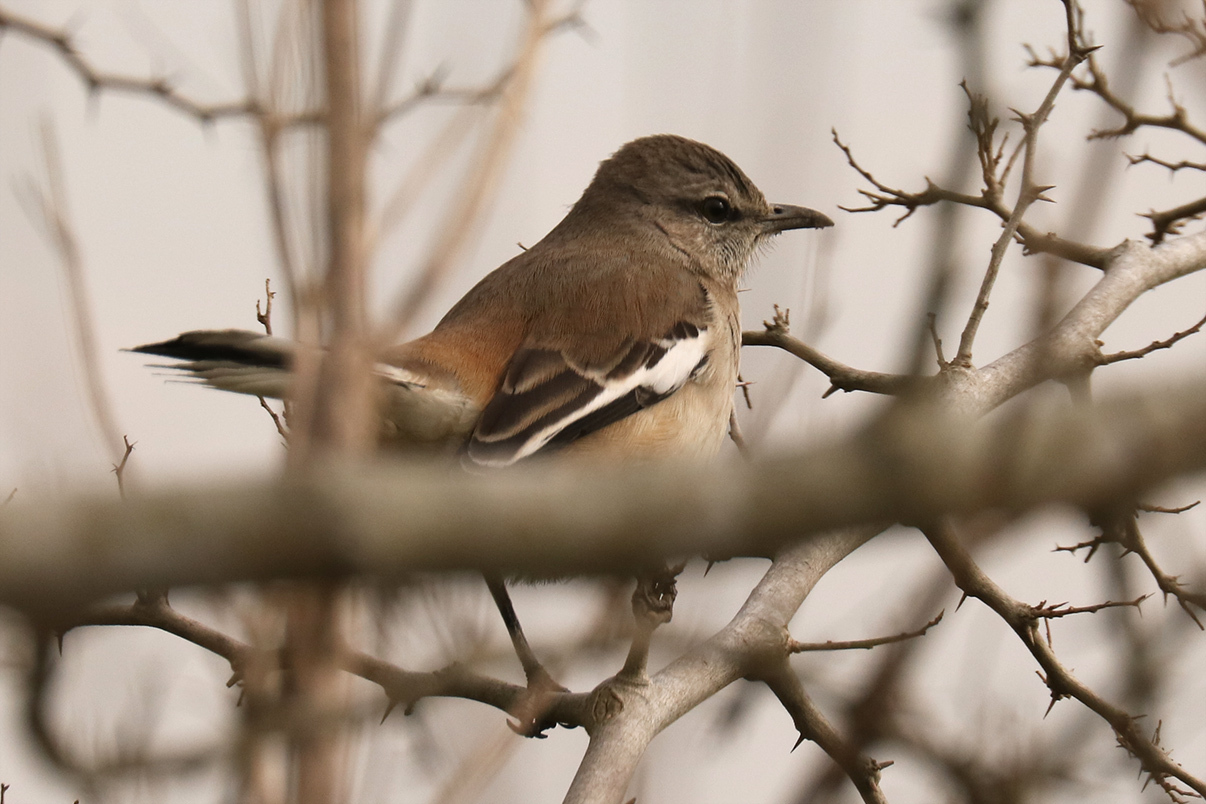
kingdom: Animalia
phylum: Chordata
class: Aves
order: Passeriformes
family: Mimidae
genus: Mimus
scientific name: Mimus triurus
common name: White-banded mockingbird
